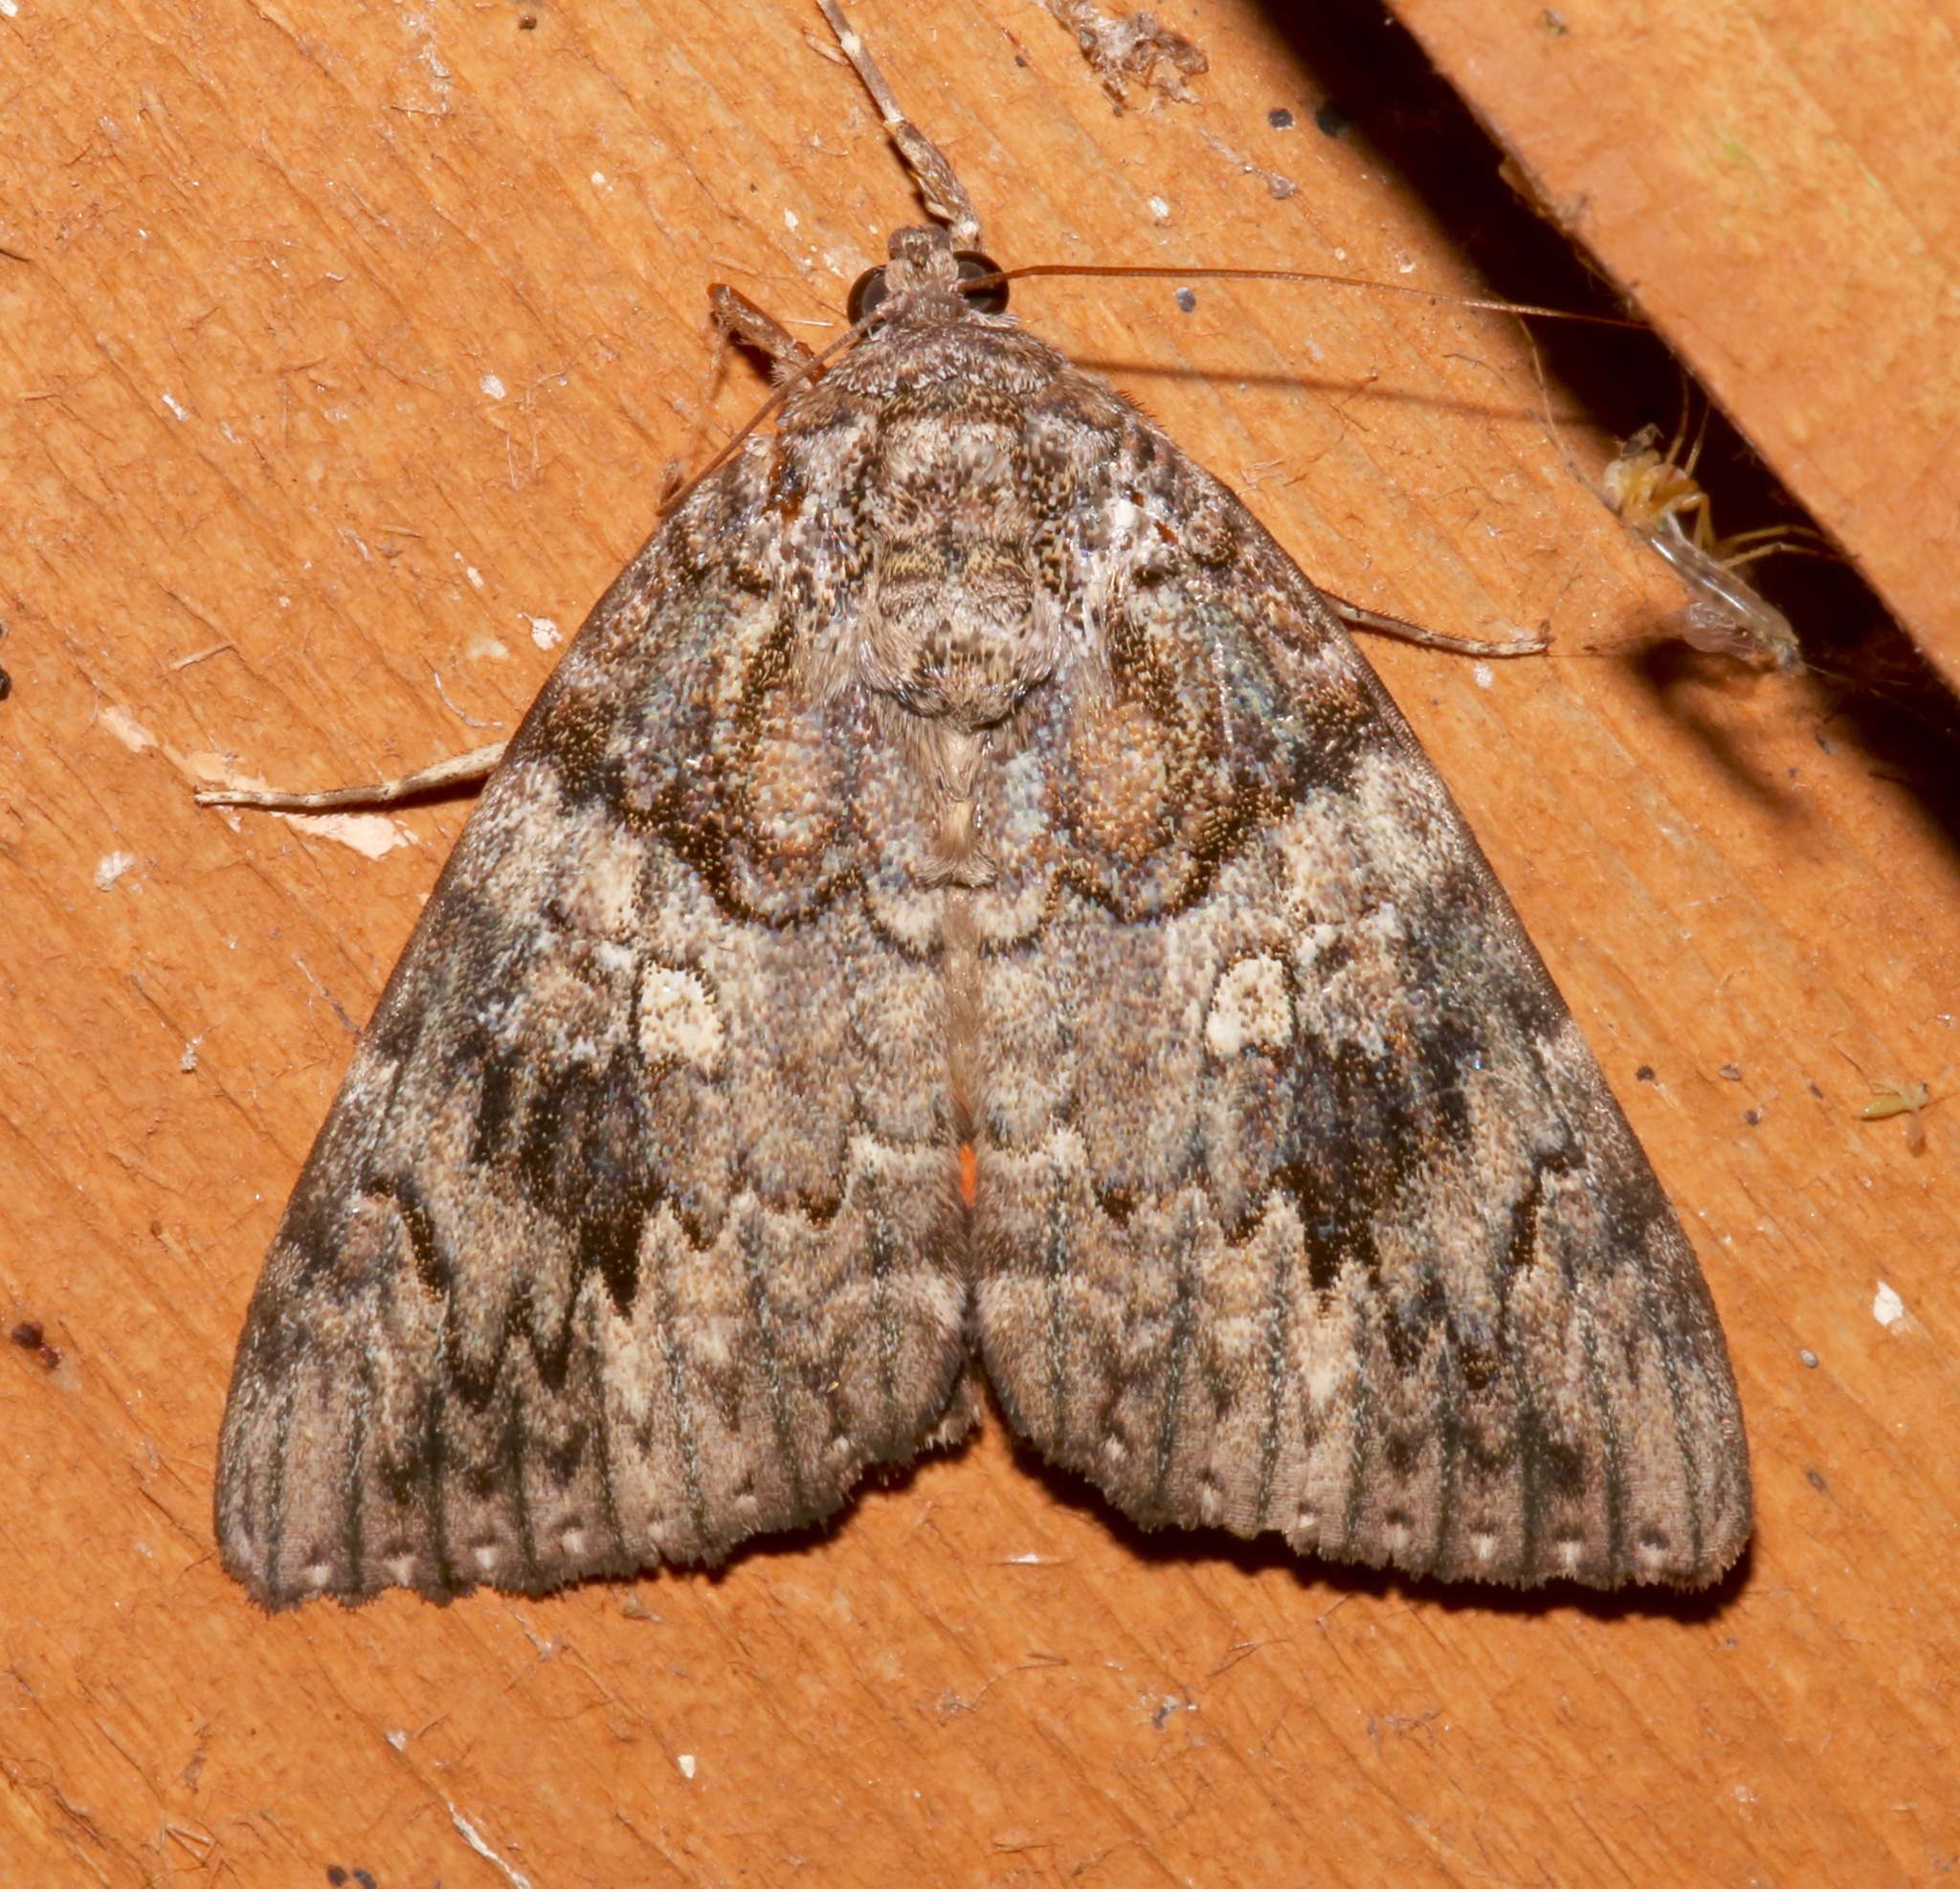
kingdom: Animalia
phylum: Arthropoda
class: Insecta
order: Lepidoptera
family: Erebidae
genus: Catocala
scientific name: Catocala ilia
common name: Ilia underwing
